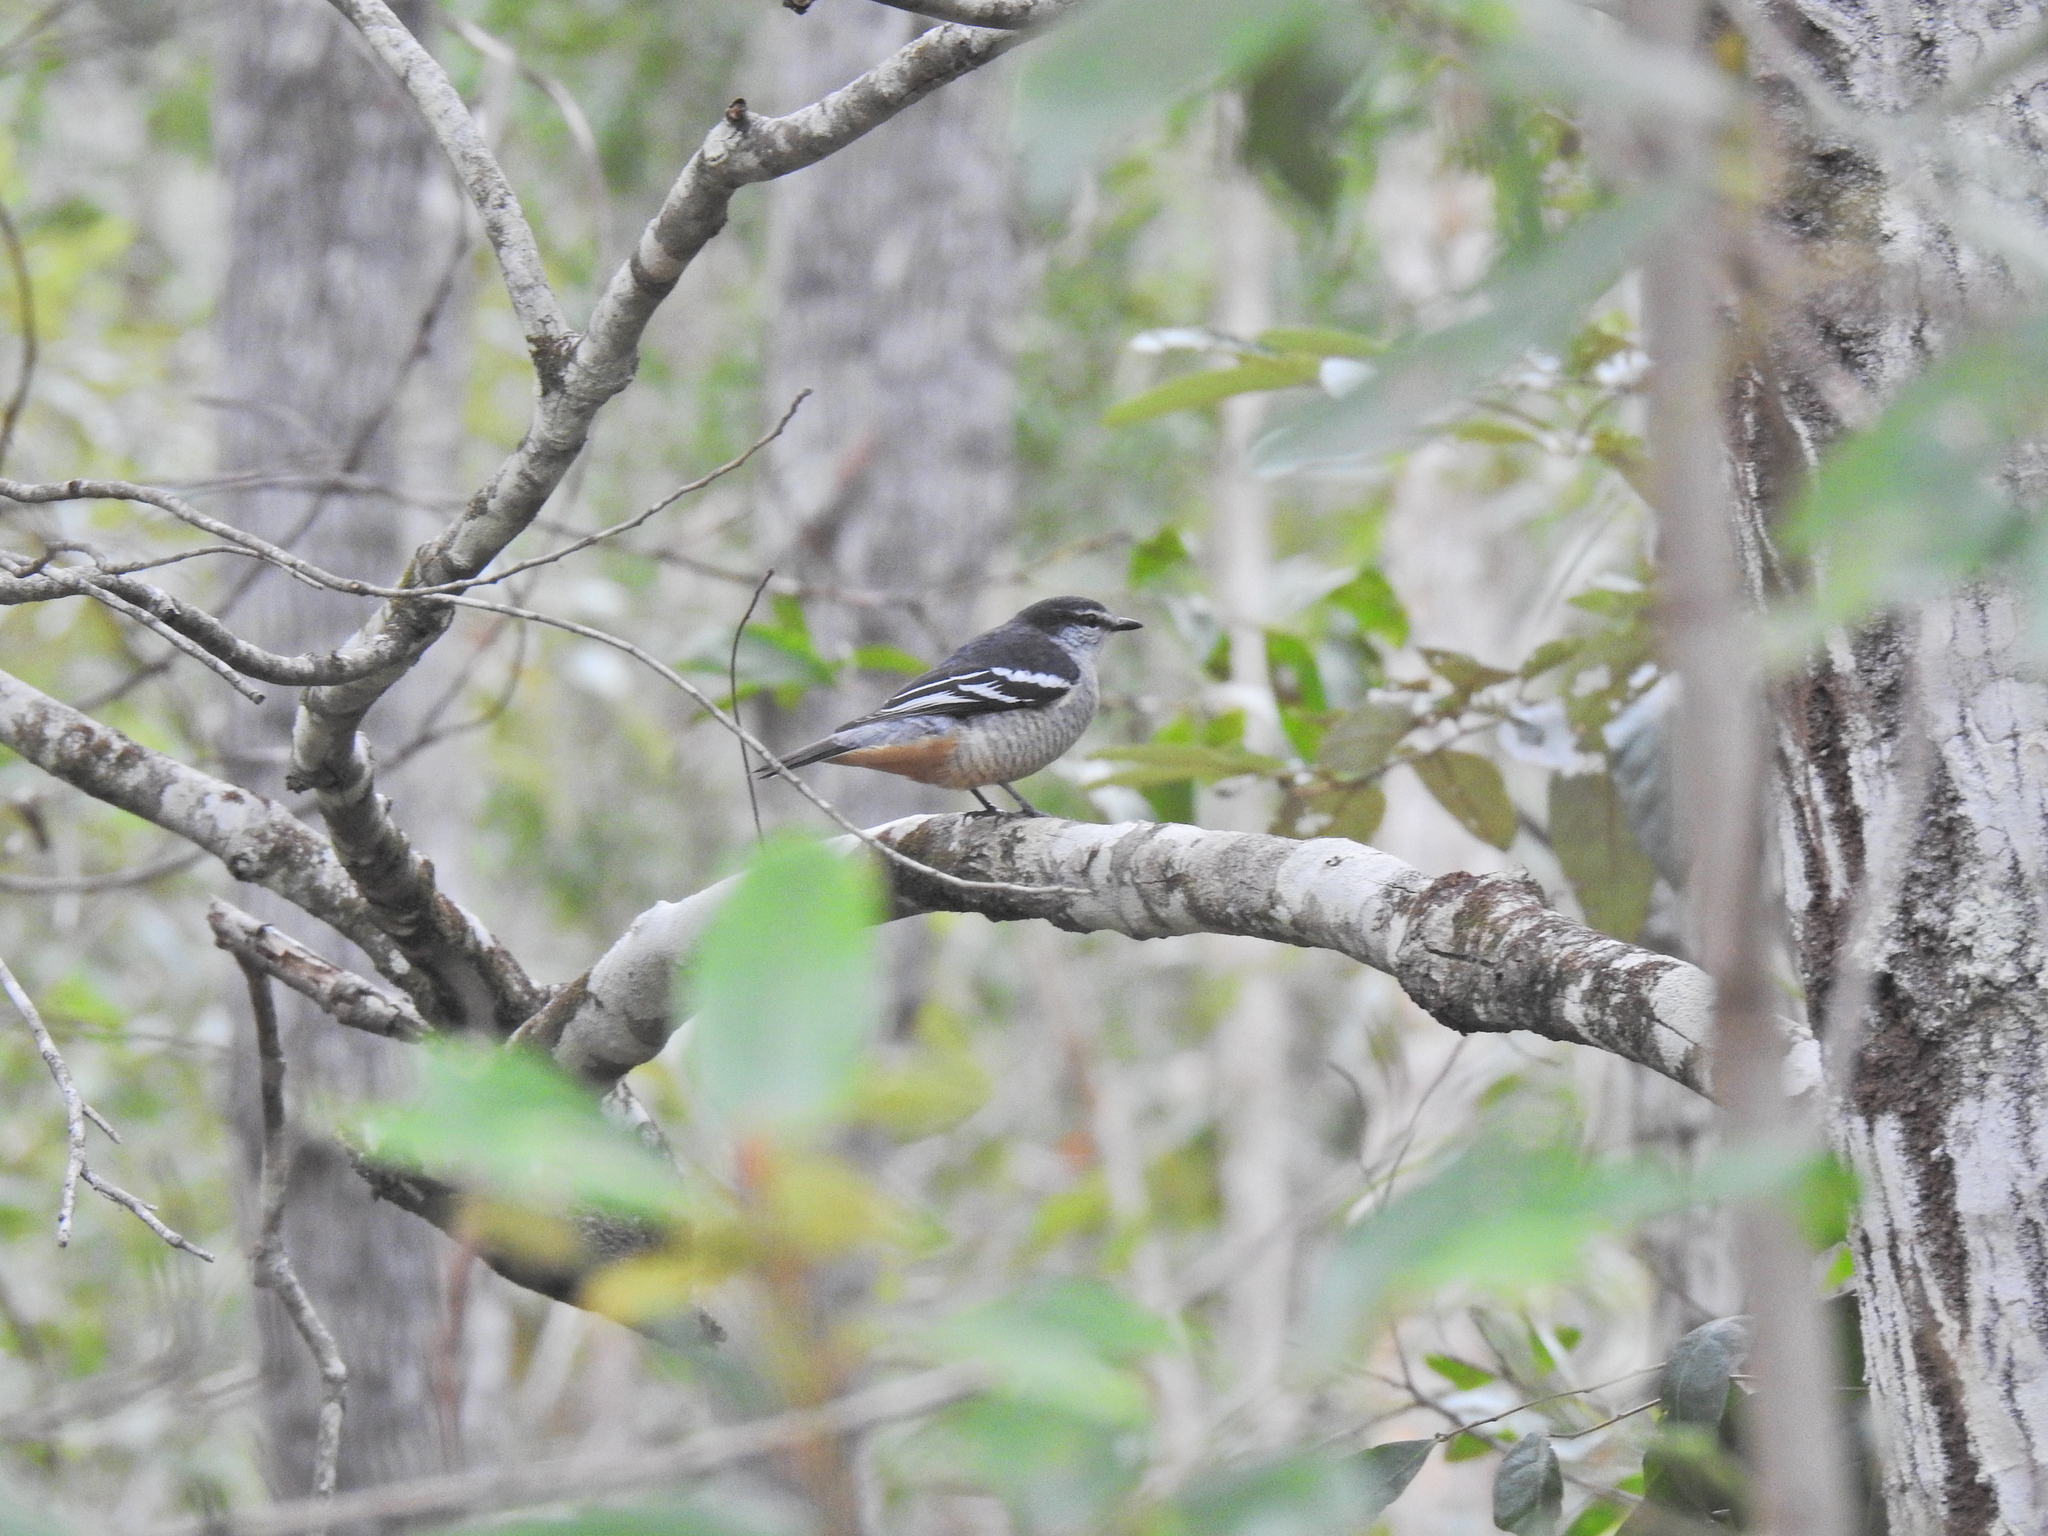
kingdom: Animalia
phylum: Chordata
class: Aves
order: Passeriformes
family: Campephagidae
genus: Lalage
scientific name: Lalage leucomela
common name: Varied triller
